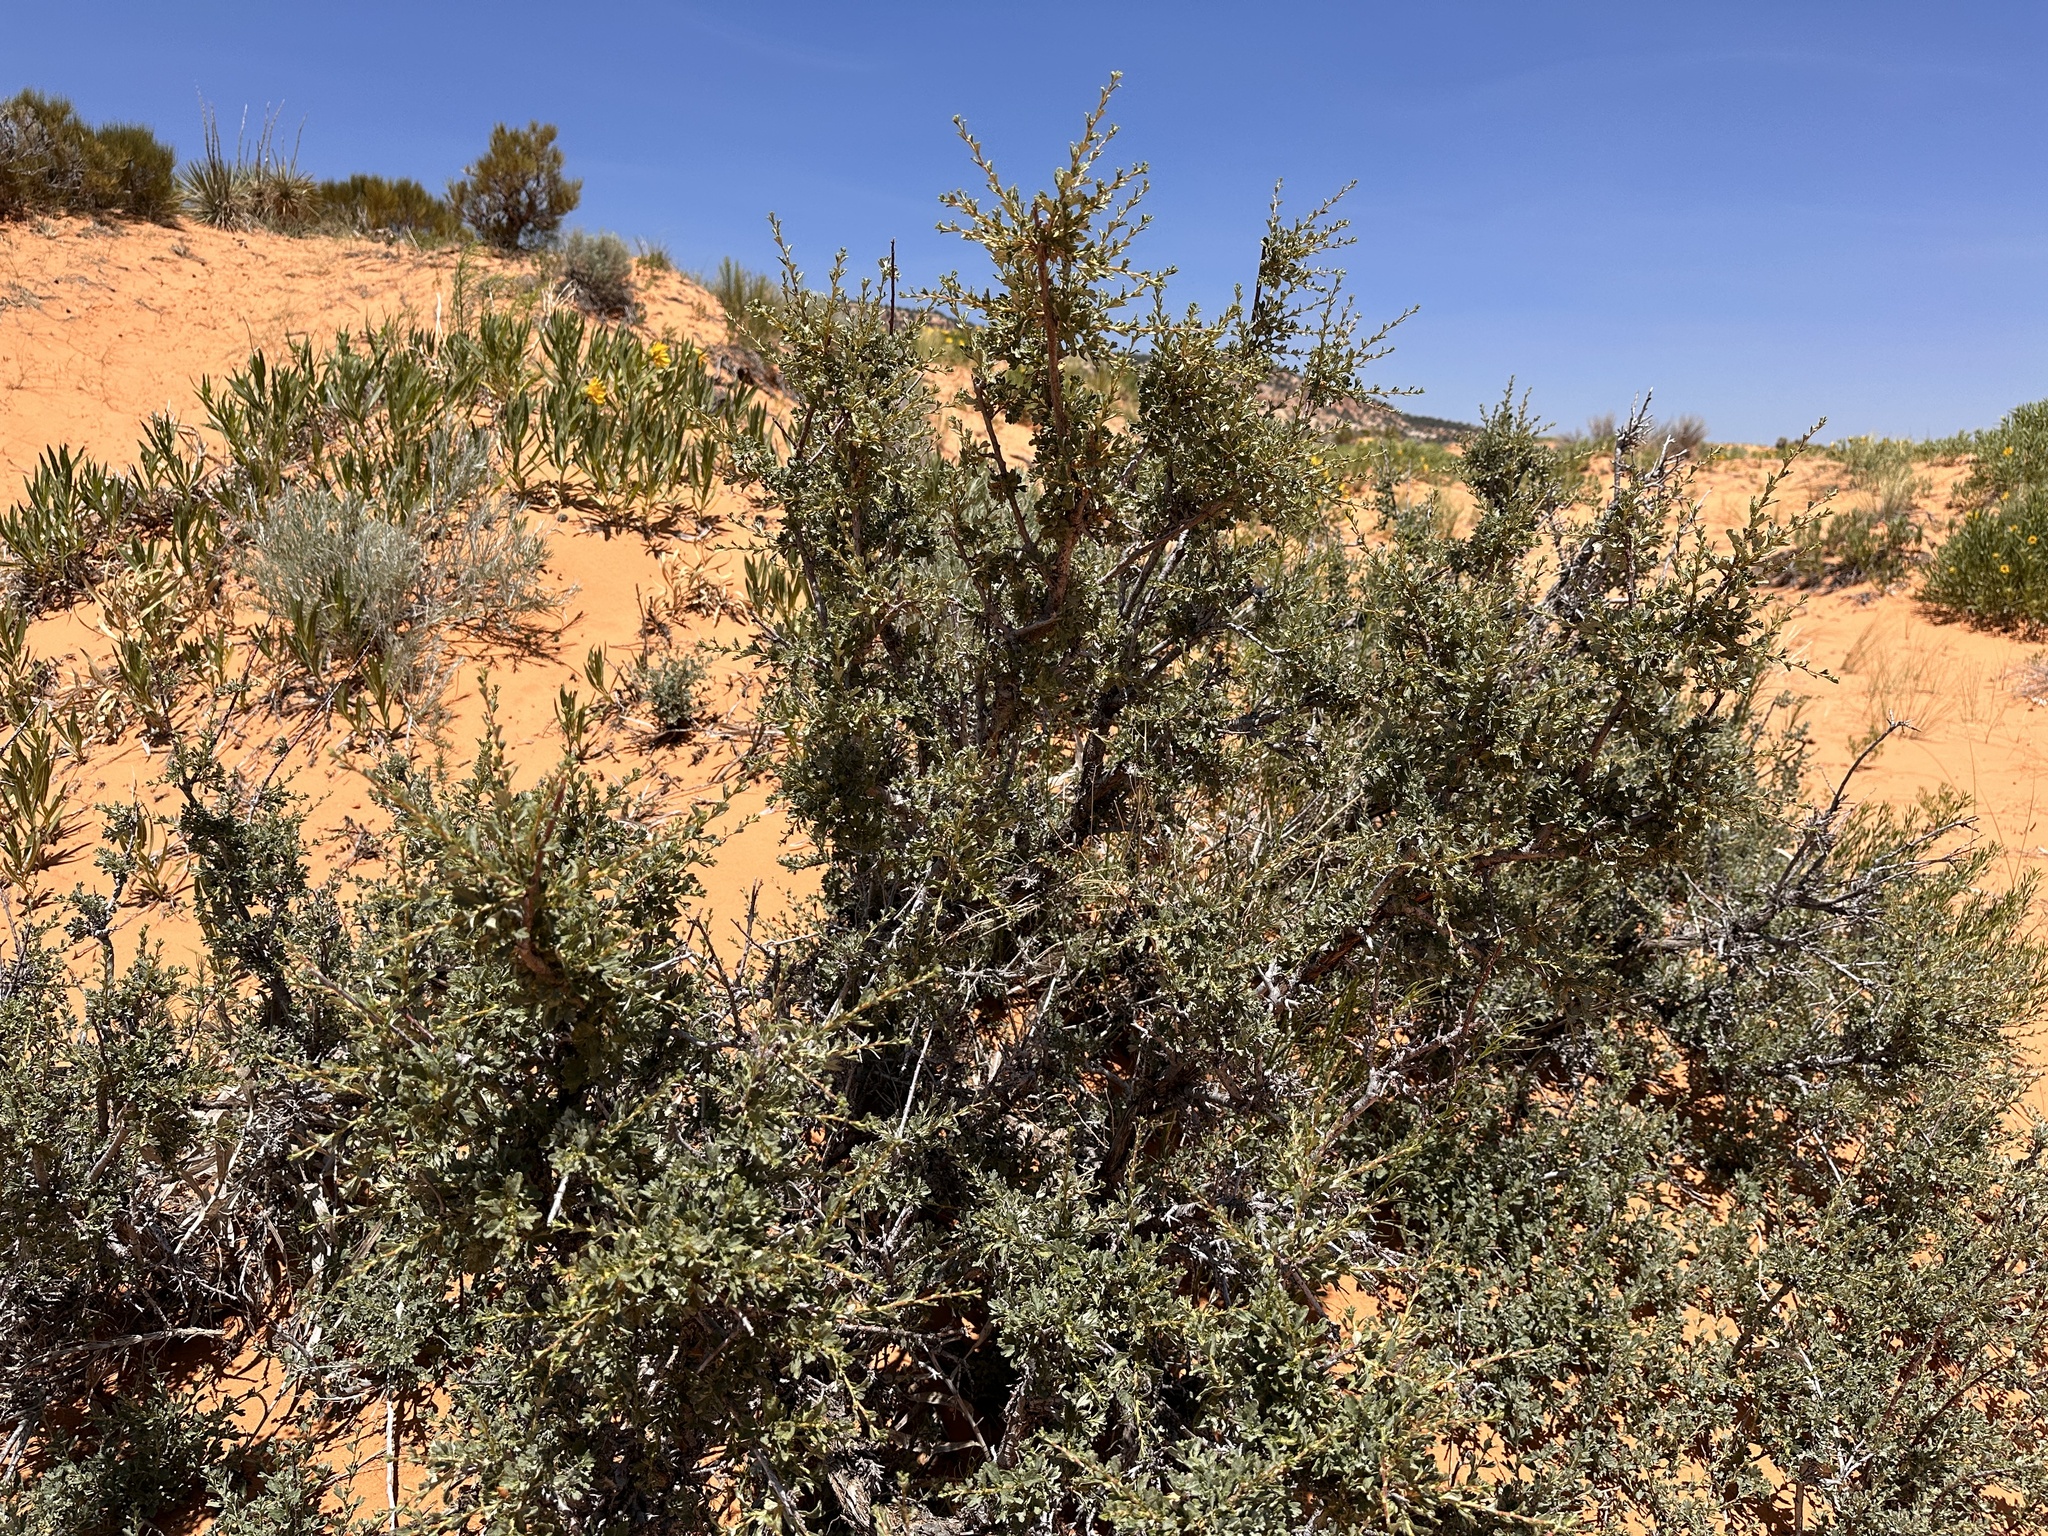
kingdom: Plantae
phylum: Tracheophyta
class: Magnoliopsida
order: Rosales
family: Rosaceae
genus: Purshia
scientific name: Purshia tridentata
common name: Antelope bitterbrush
